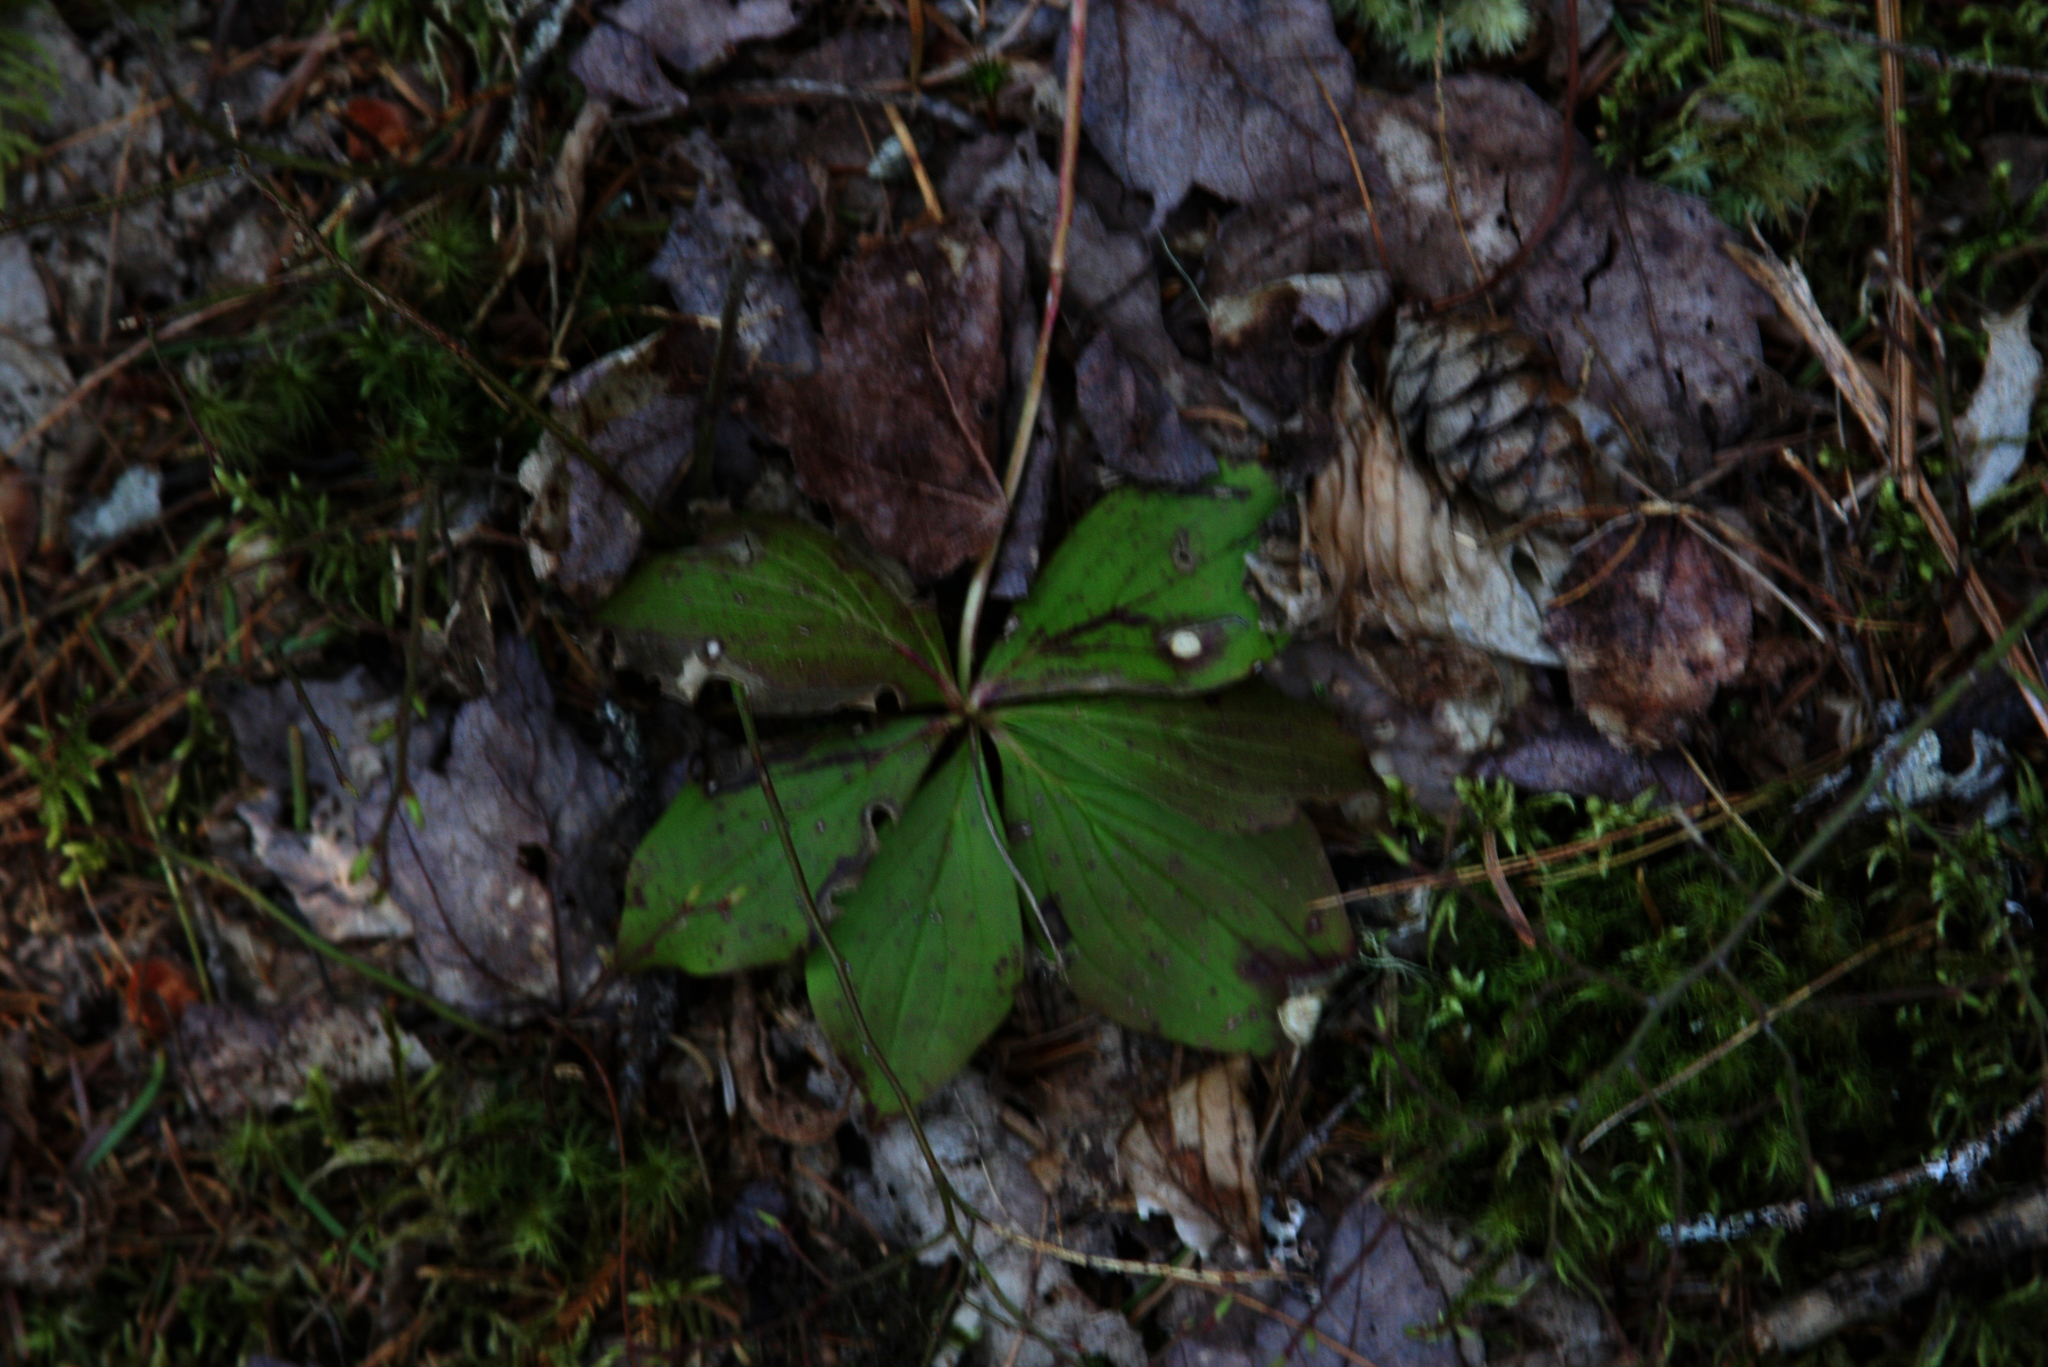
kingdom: Plantae
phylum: Tracheophyta
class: Magnoliopsida
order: Cornales
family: Cornaceae
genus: Cornus
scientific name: Cornus canadensis
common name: Creeping dogwood
